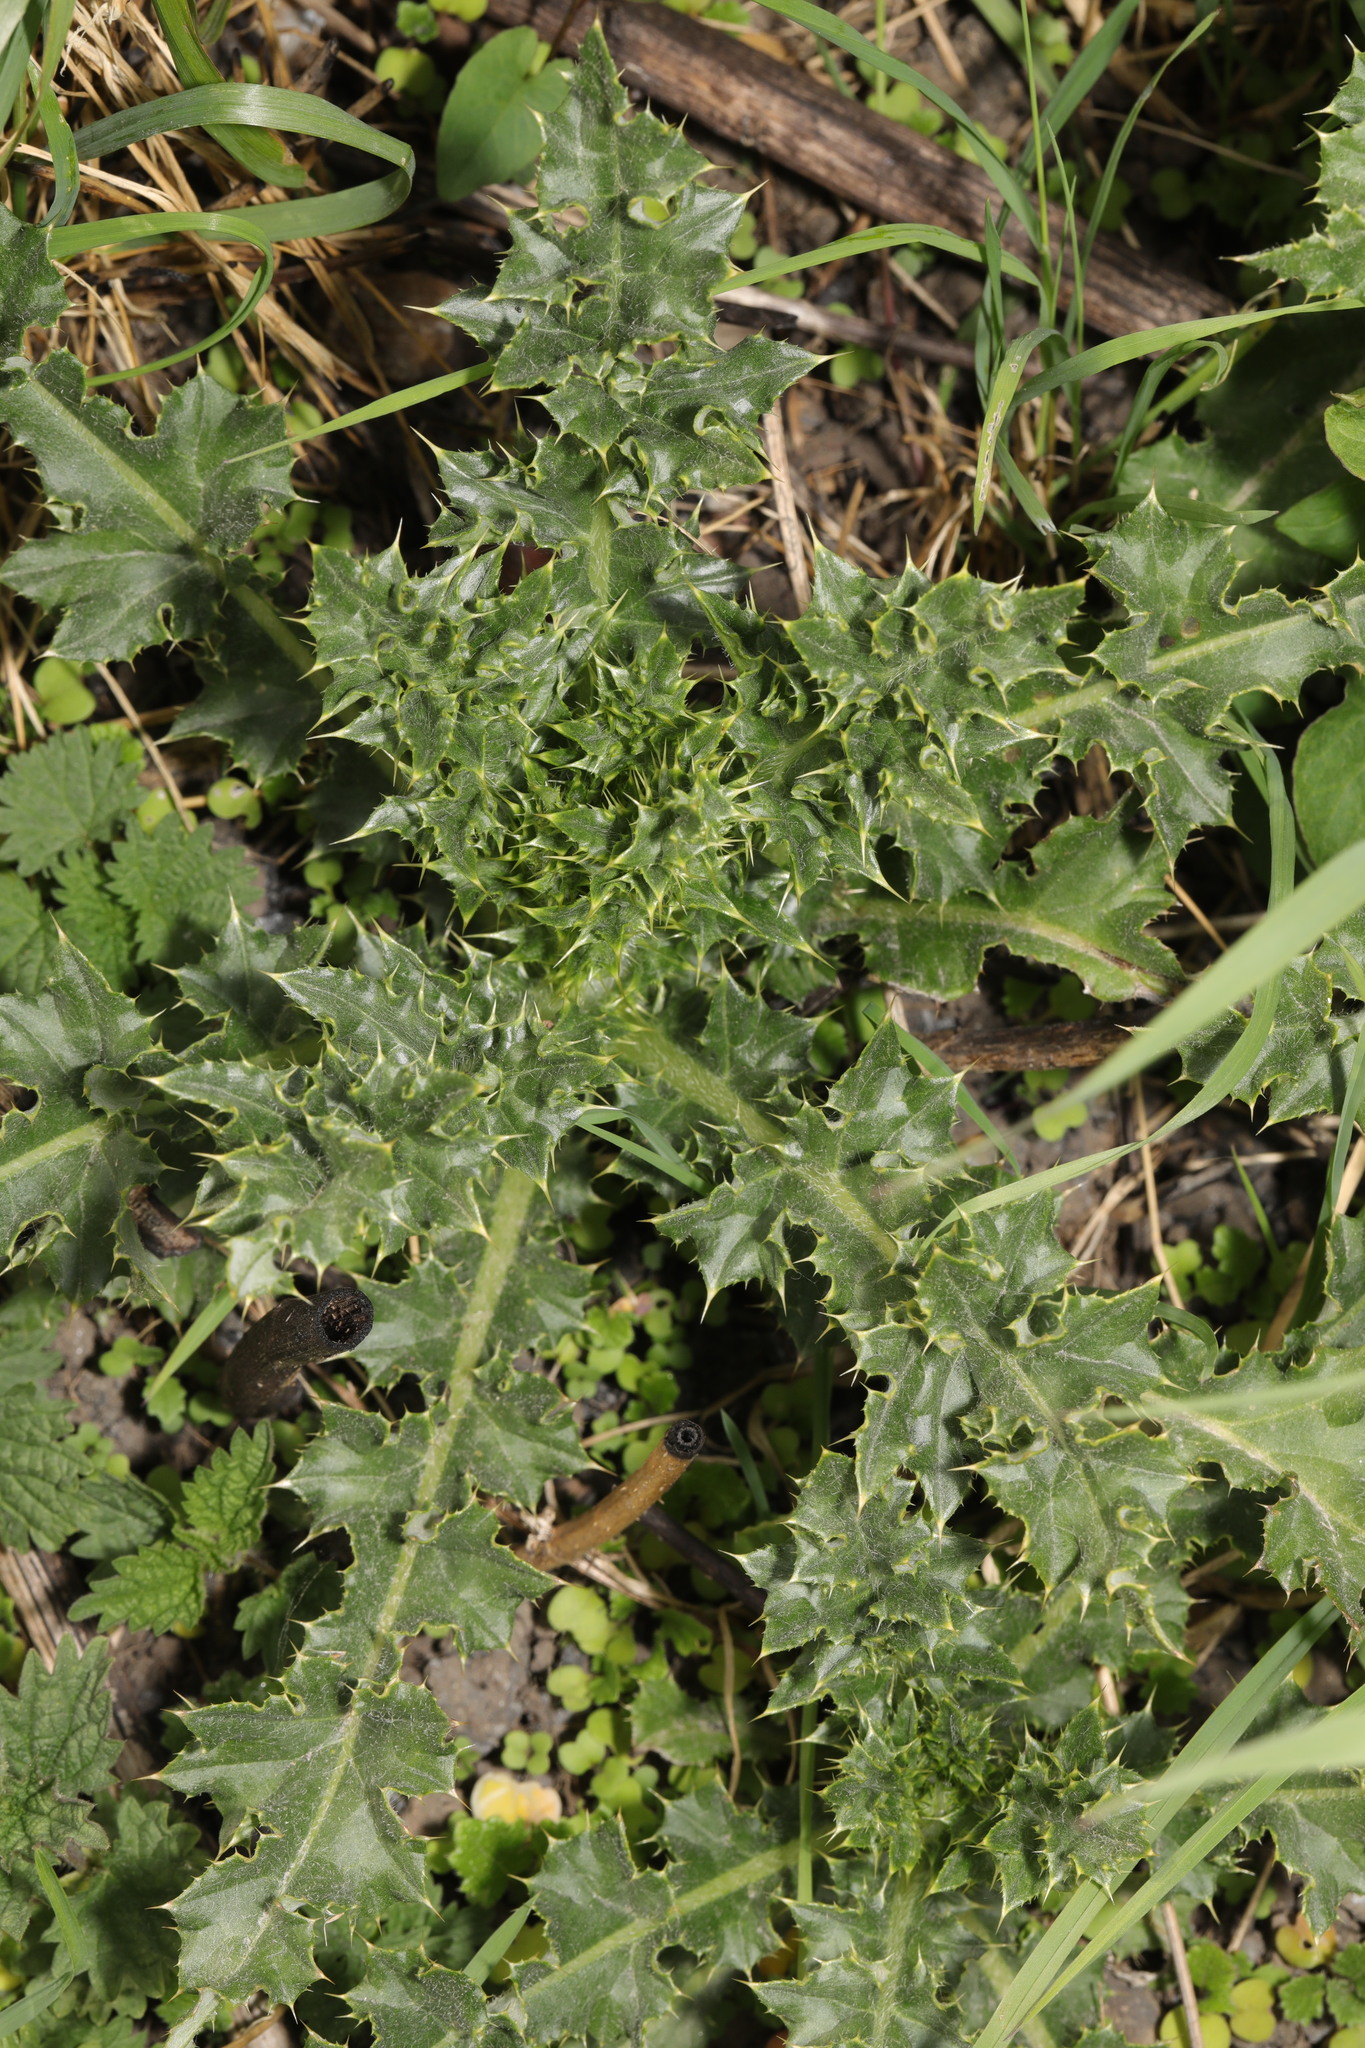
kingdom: Plantae
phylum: Tracheophyta
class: Magnoliopsida
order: Asterales
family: Asteraceae
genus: Cirsium
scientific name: Cirsium arvense
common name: Creeping thistle
